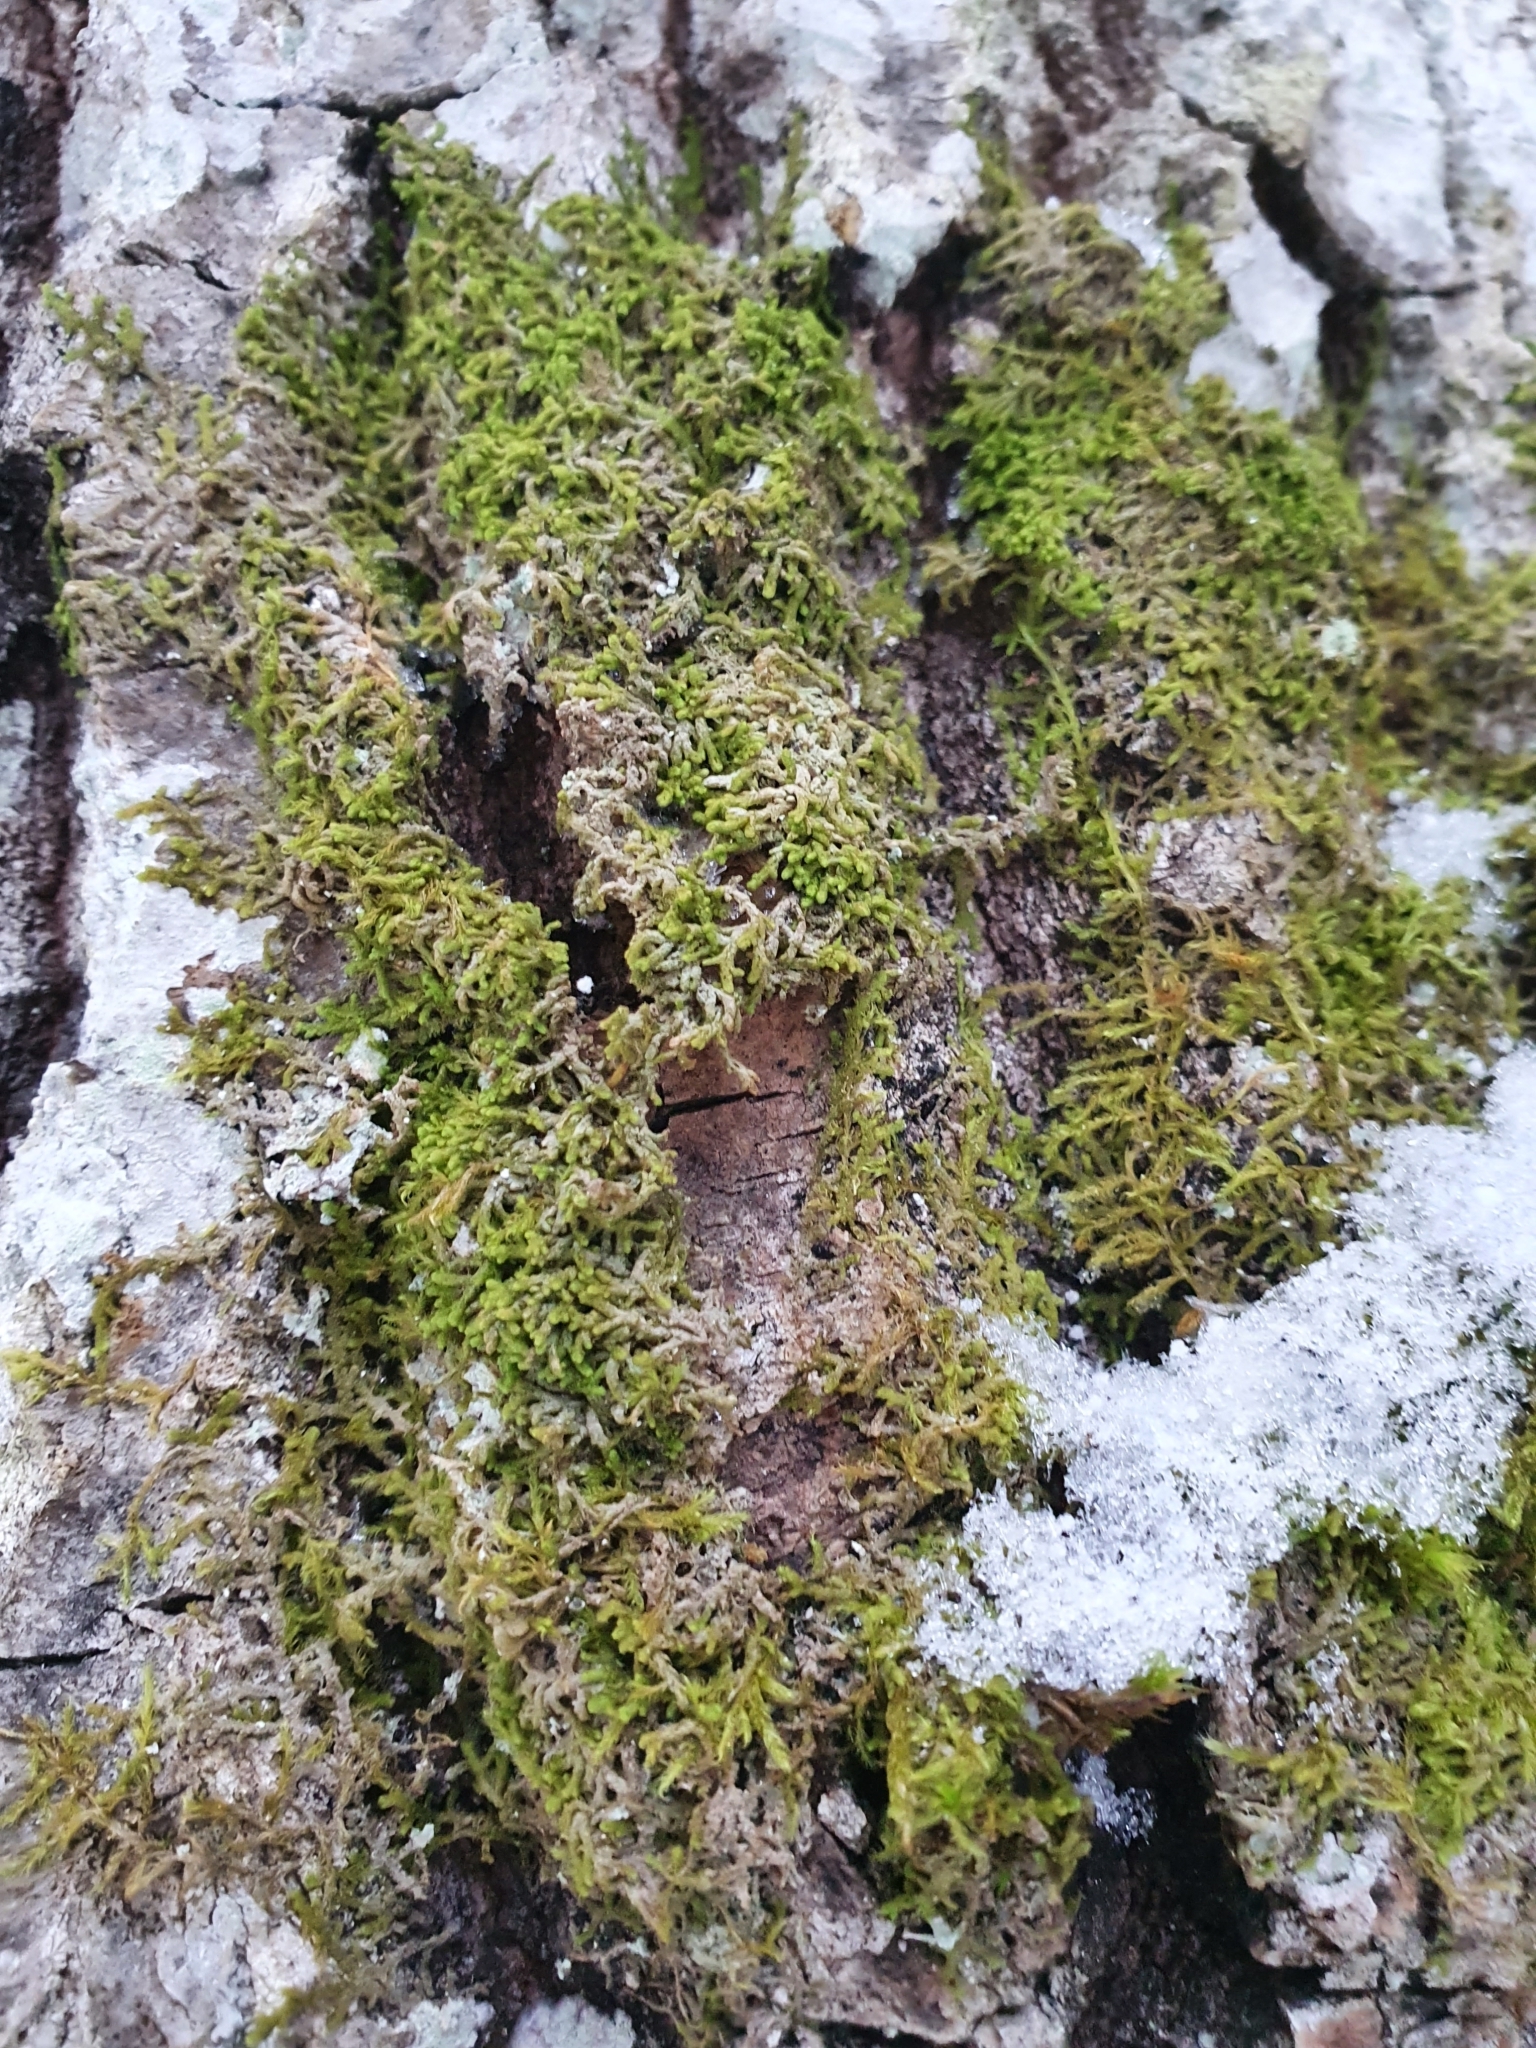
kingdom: Plantae
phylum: Marchantiophyta
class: Jungermanniopsida
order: Ptilidiales
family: Ptilidiaceae
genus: Ptilidium
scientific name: Ptilidium pulcherrimum
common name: Tree fringewort
